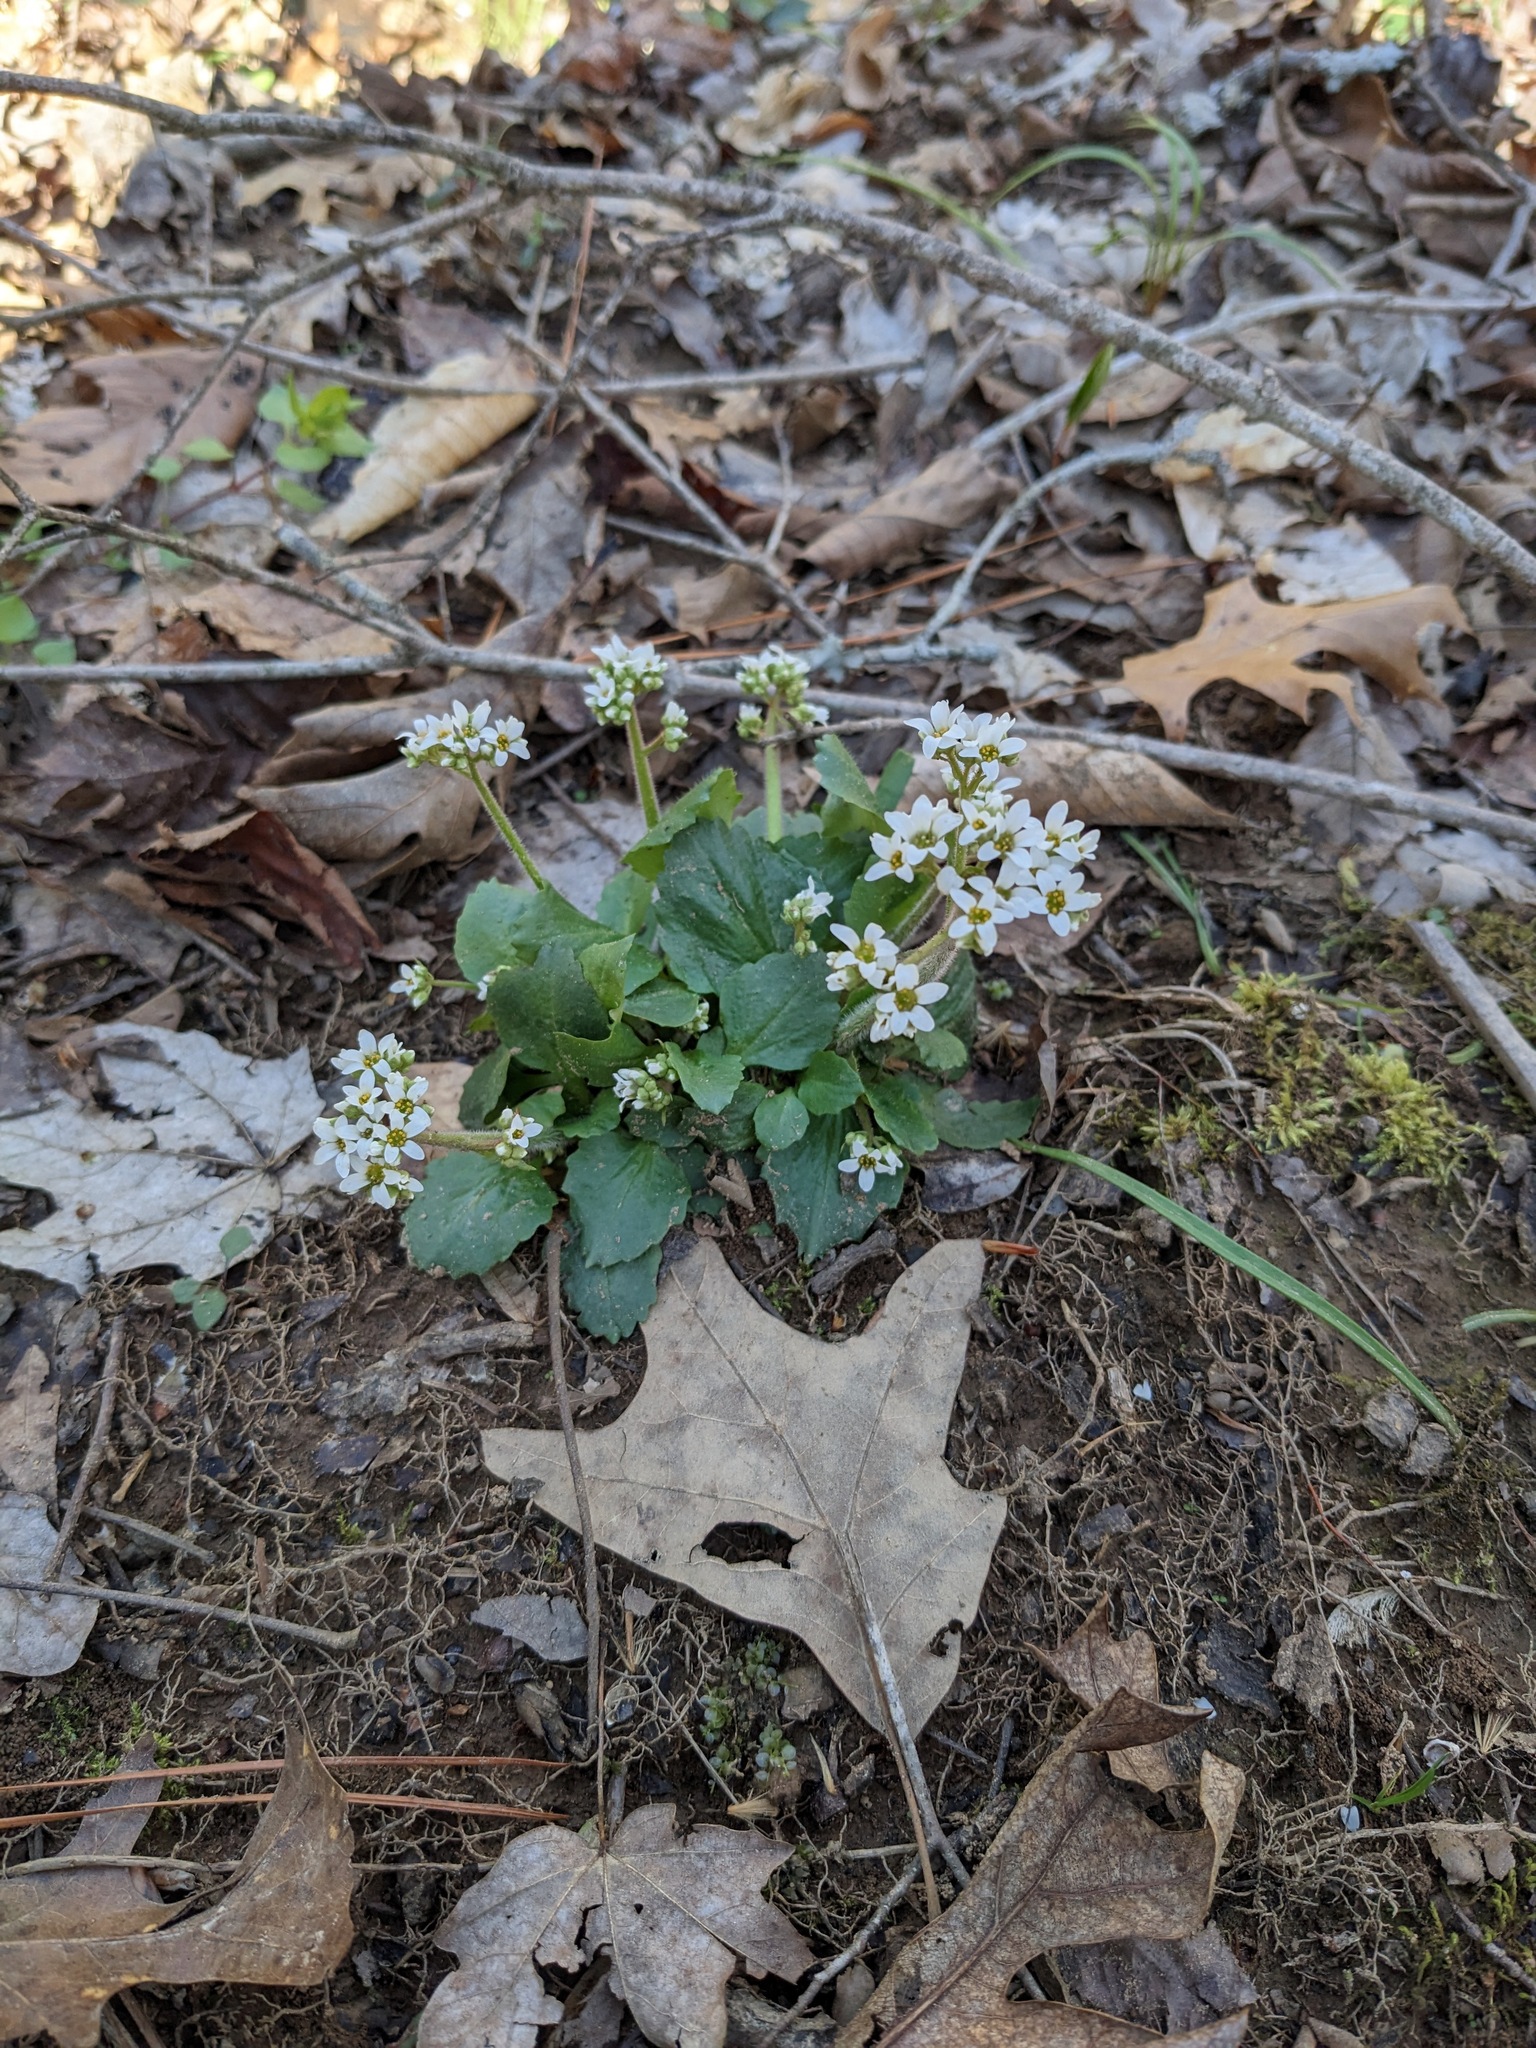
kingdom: Plantae
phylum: Tracheophyta
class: Magnoliopsida
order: Saxifragales
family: Saxifragaceae
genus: Micranthes
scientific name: Micranthes virginiensis
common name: Early saxifrage
